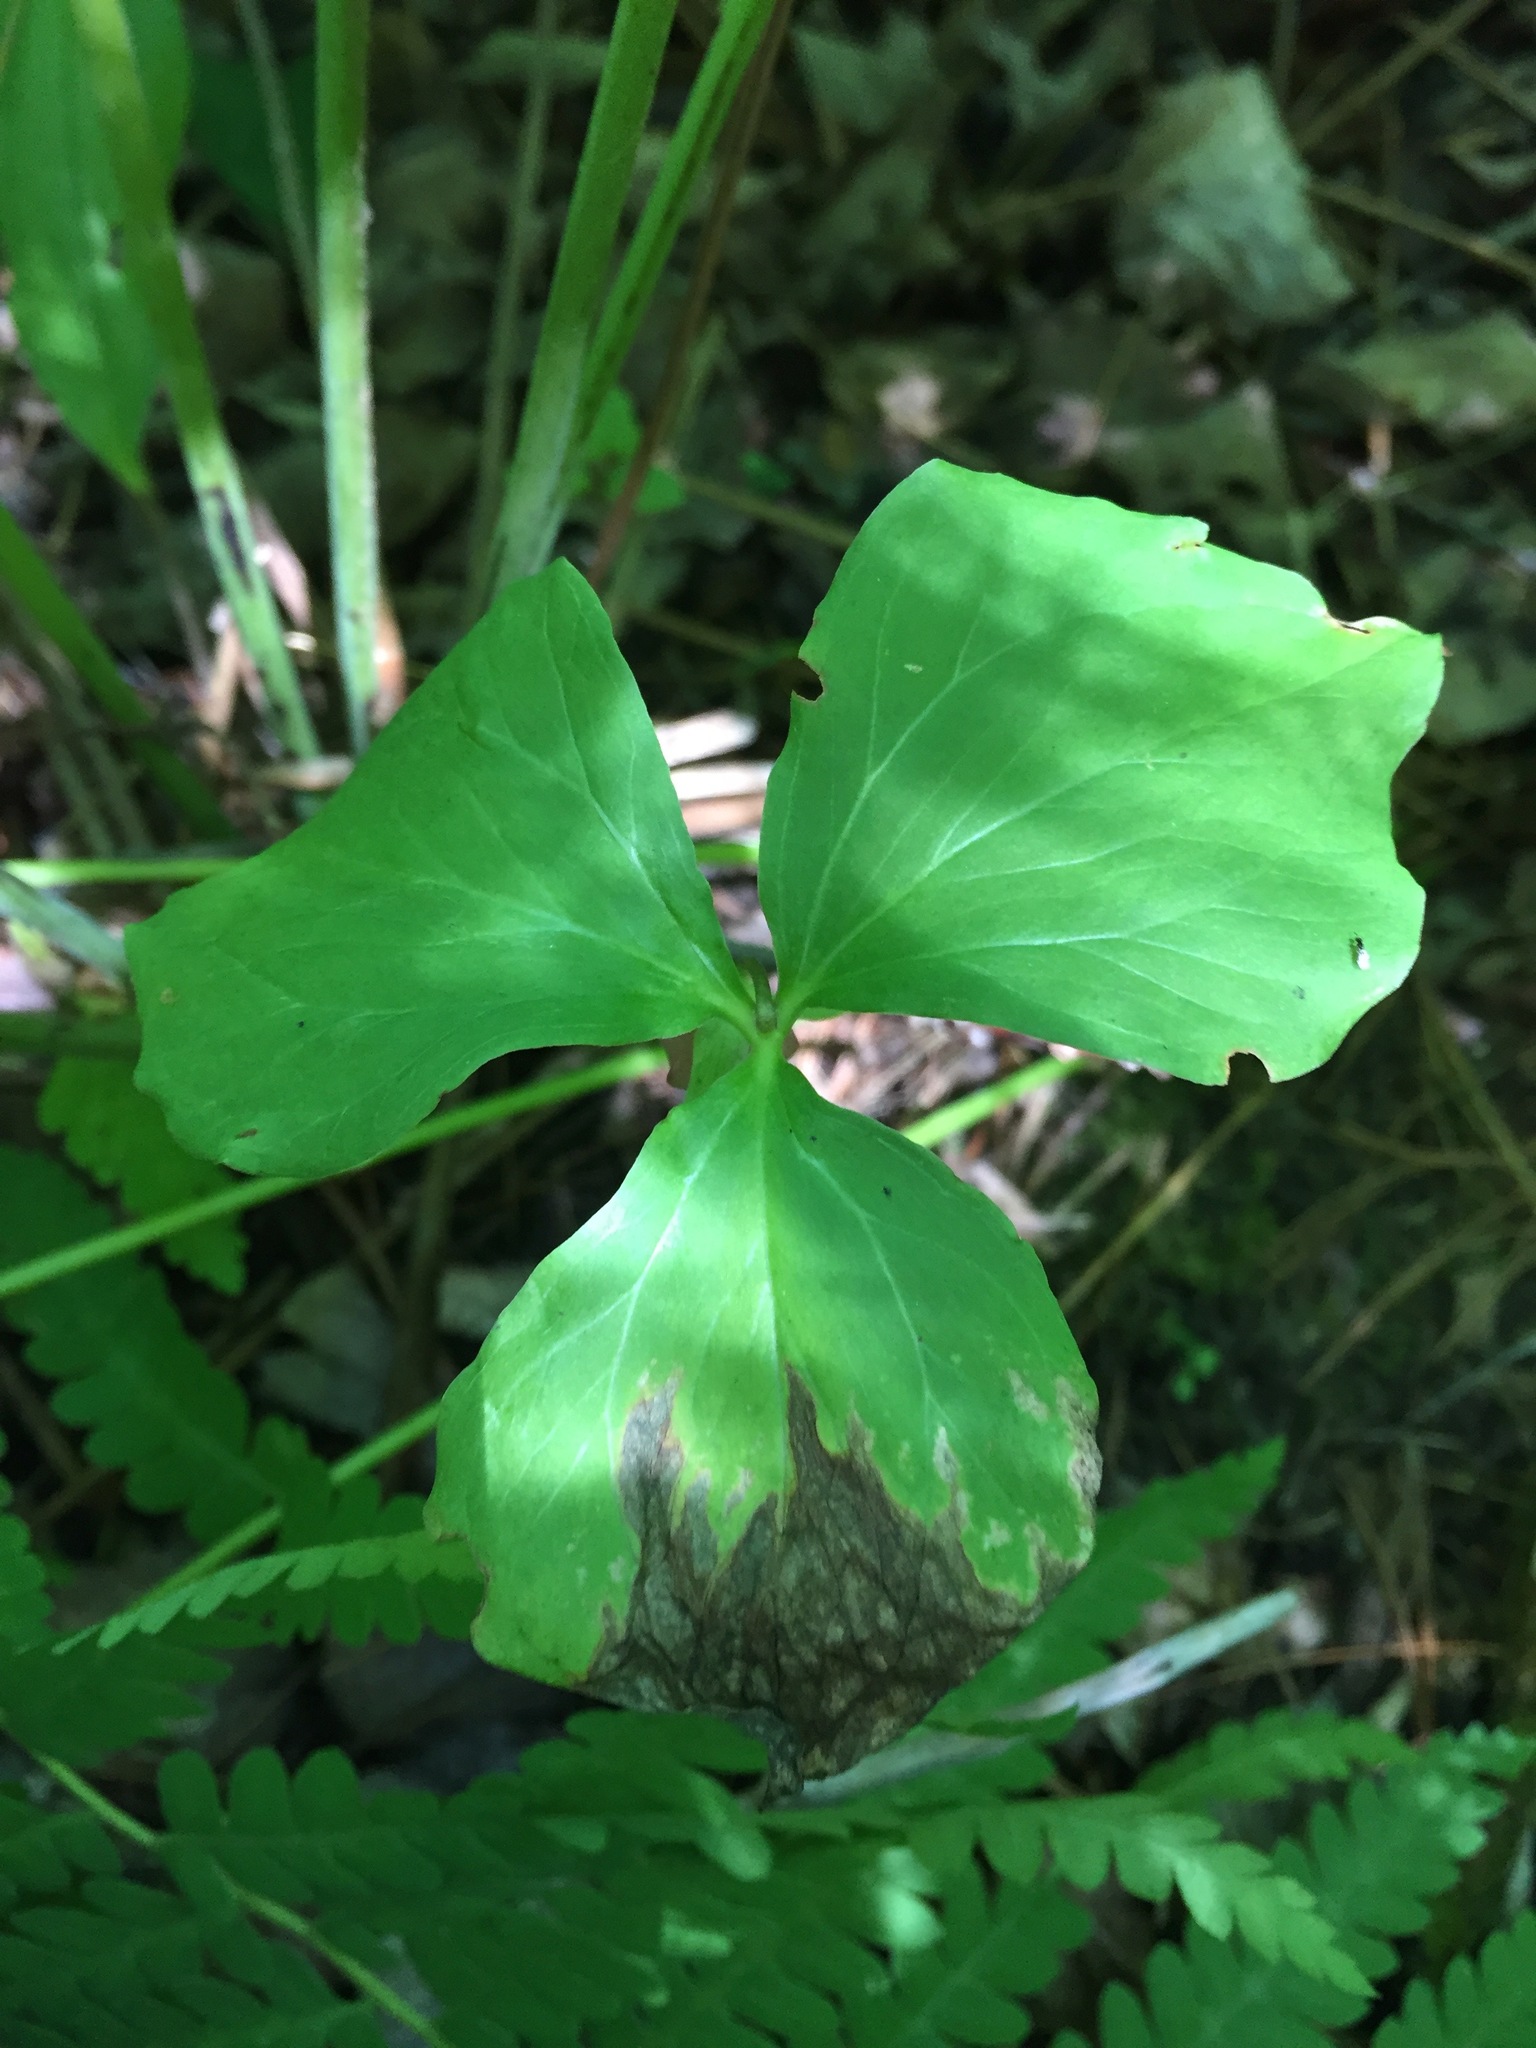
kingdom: Plantae
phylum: Tracheophyta
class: Liliopsida
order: Liliales
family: Melanthiaceae
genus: Trillium
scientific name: Trillium cernuum
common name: Nodding trillium
